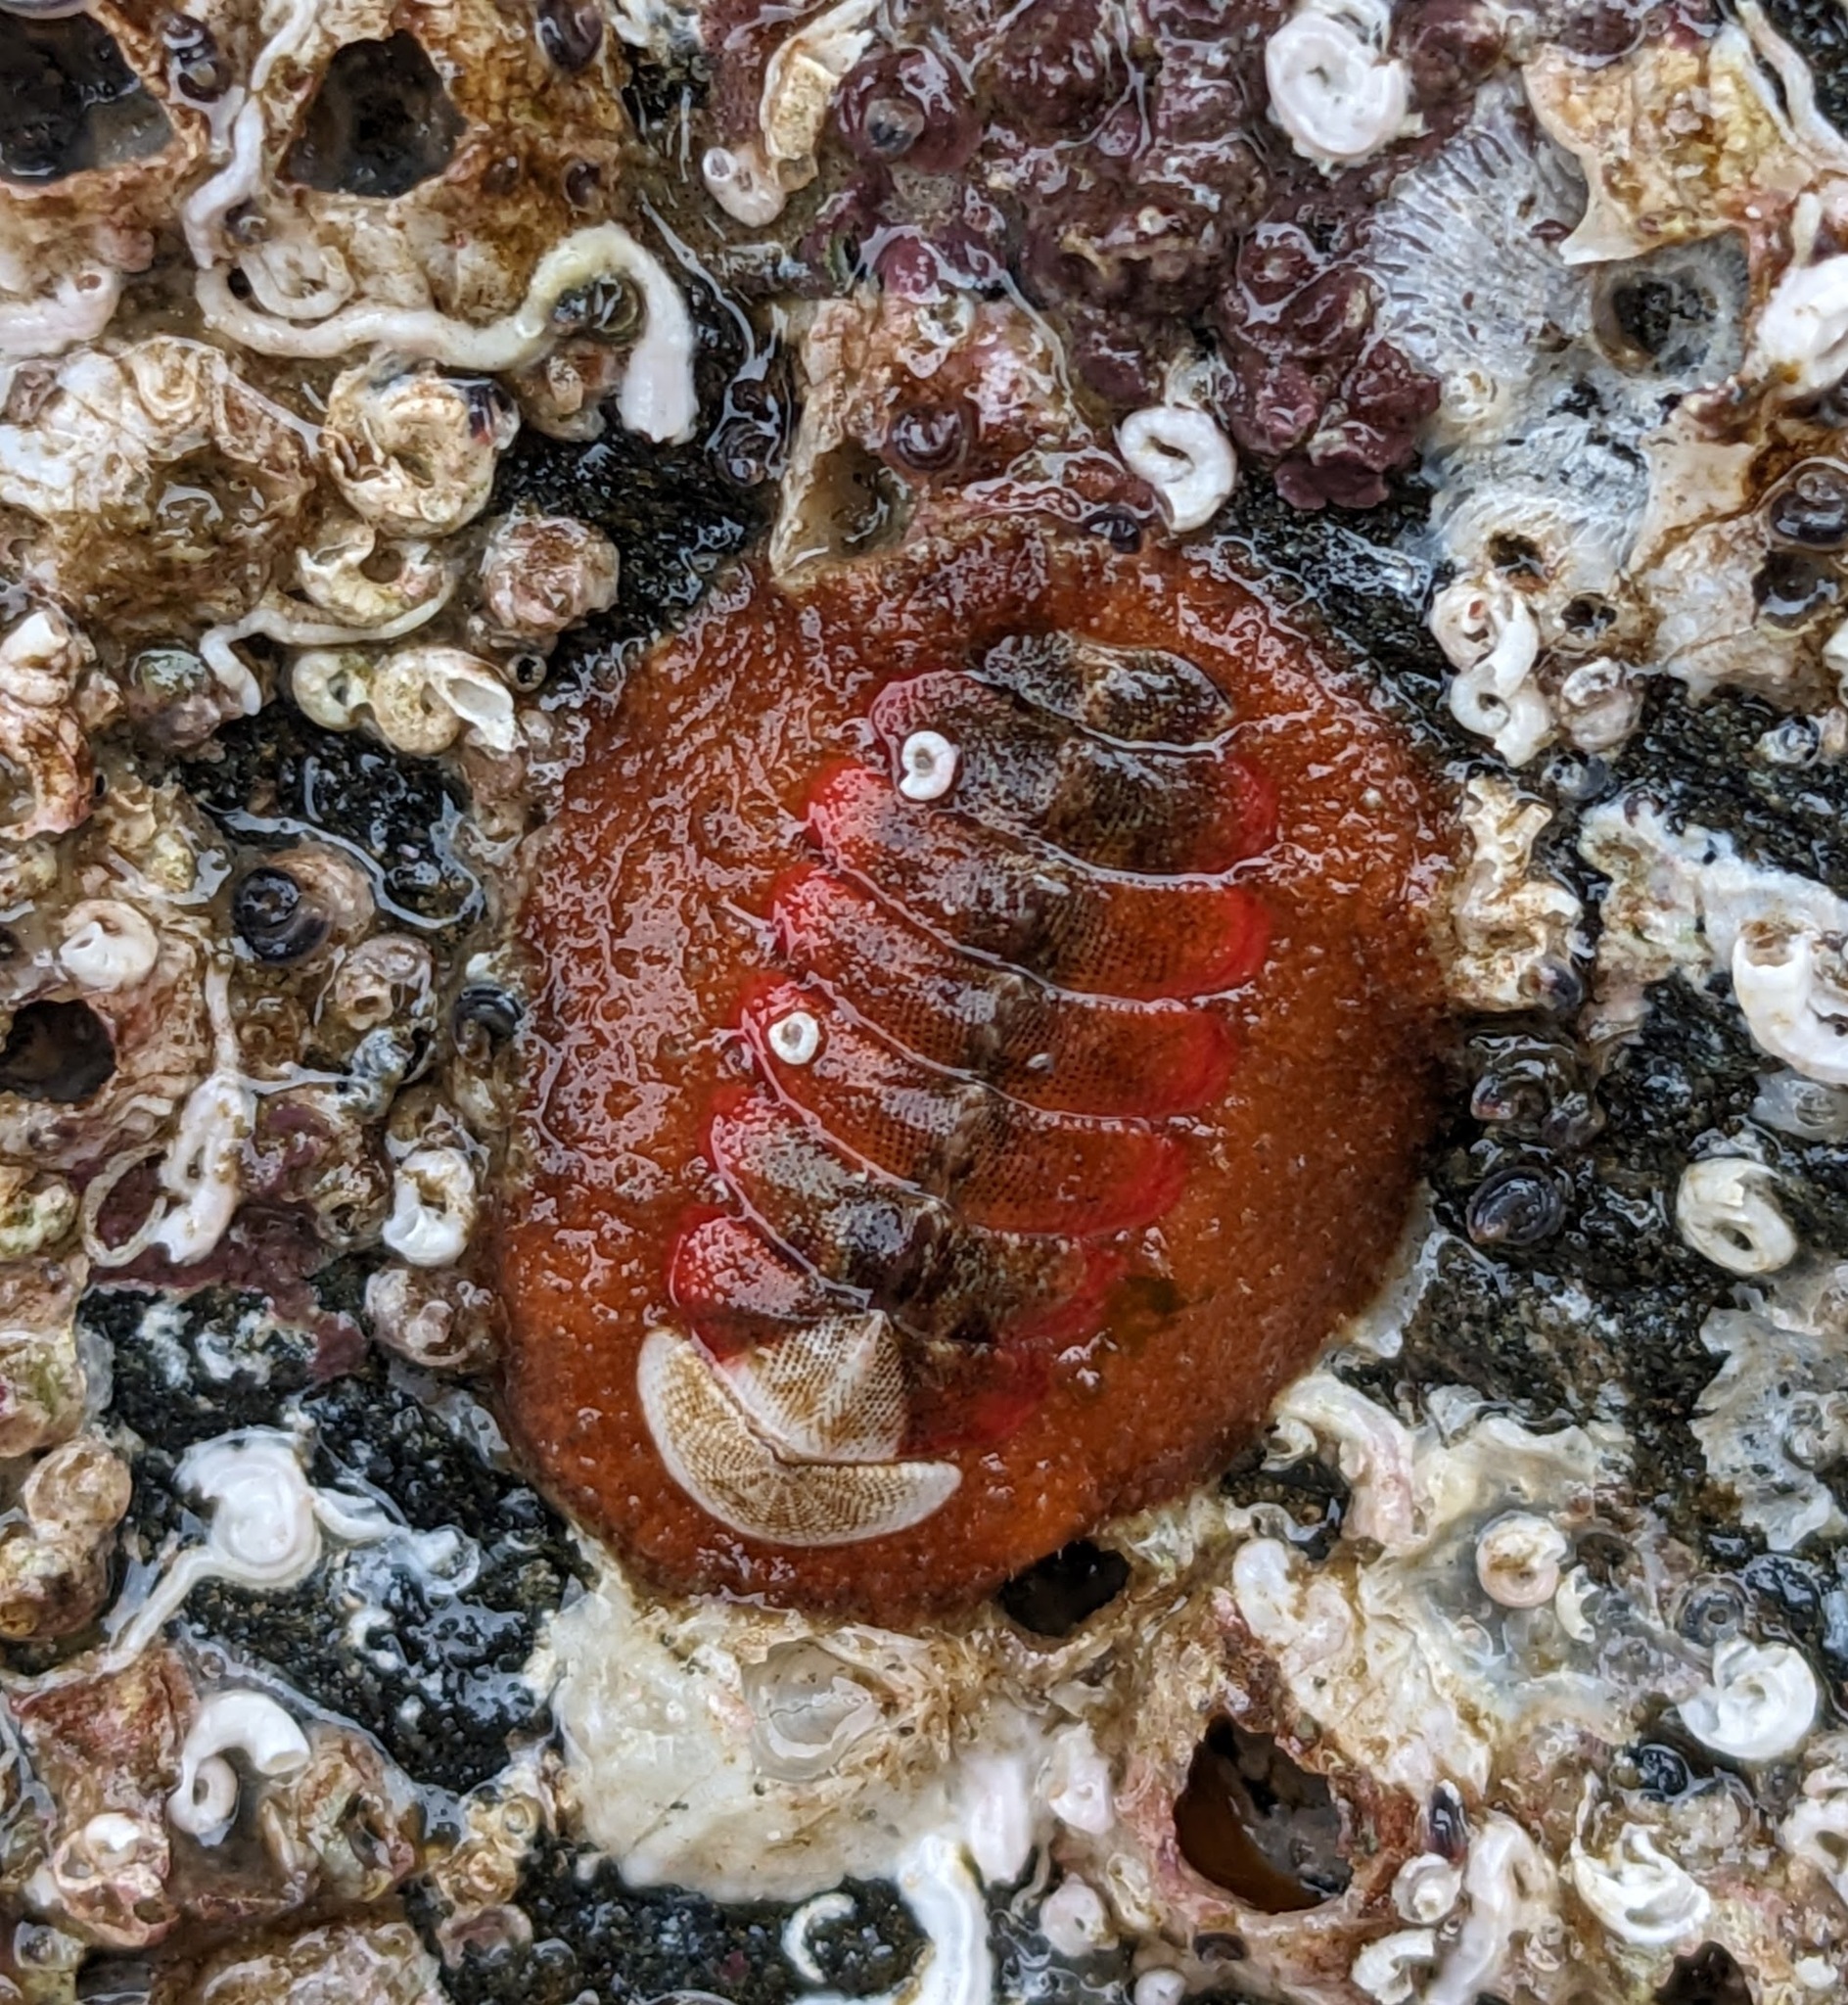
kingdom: Animalia
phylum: Mollusca
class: Polyplacophora
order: Chitonida
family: Mopaliidae
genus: Mopalia
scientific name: Mopalia swanii
